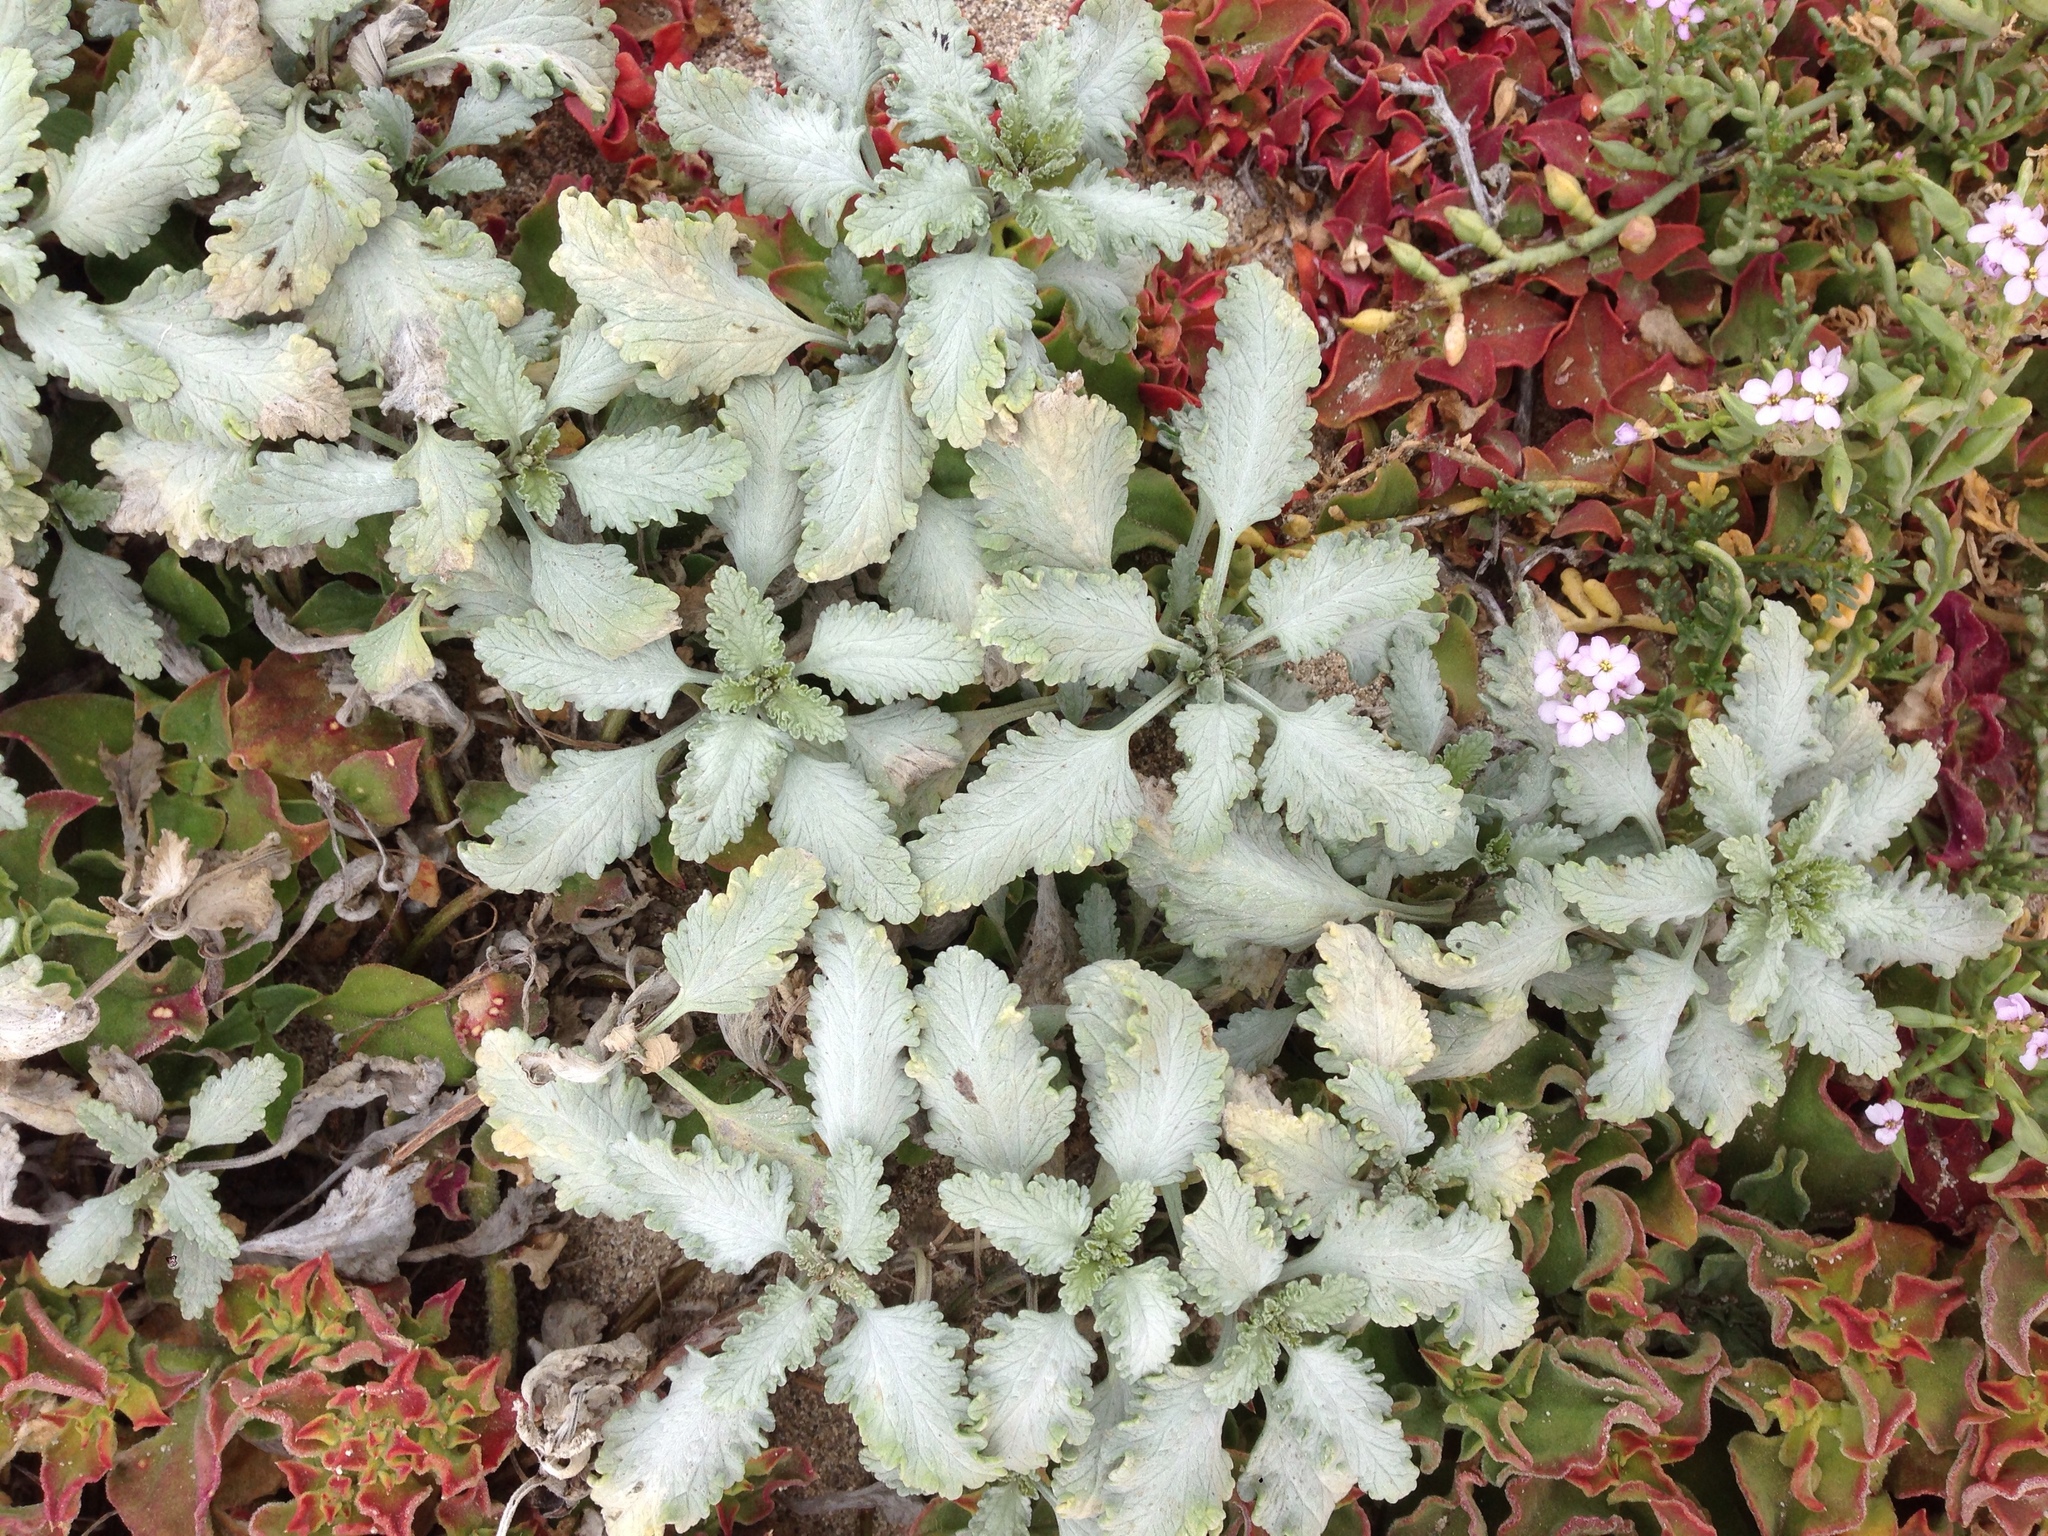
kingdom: Plantae
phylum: Tracheophyta
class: Magnoliopsida
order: Asterales
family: Asteraceae
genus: Ambrosia
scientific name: Ambrosia chamissonis
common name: Beachbur
